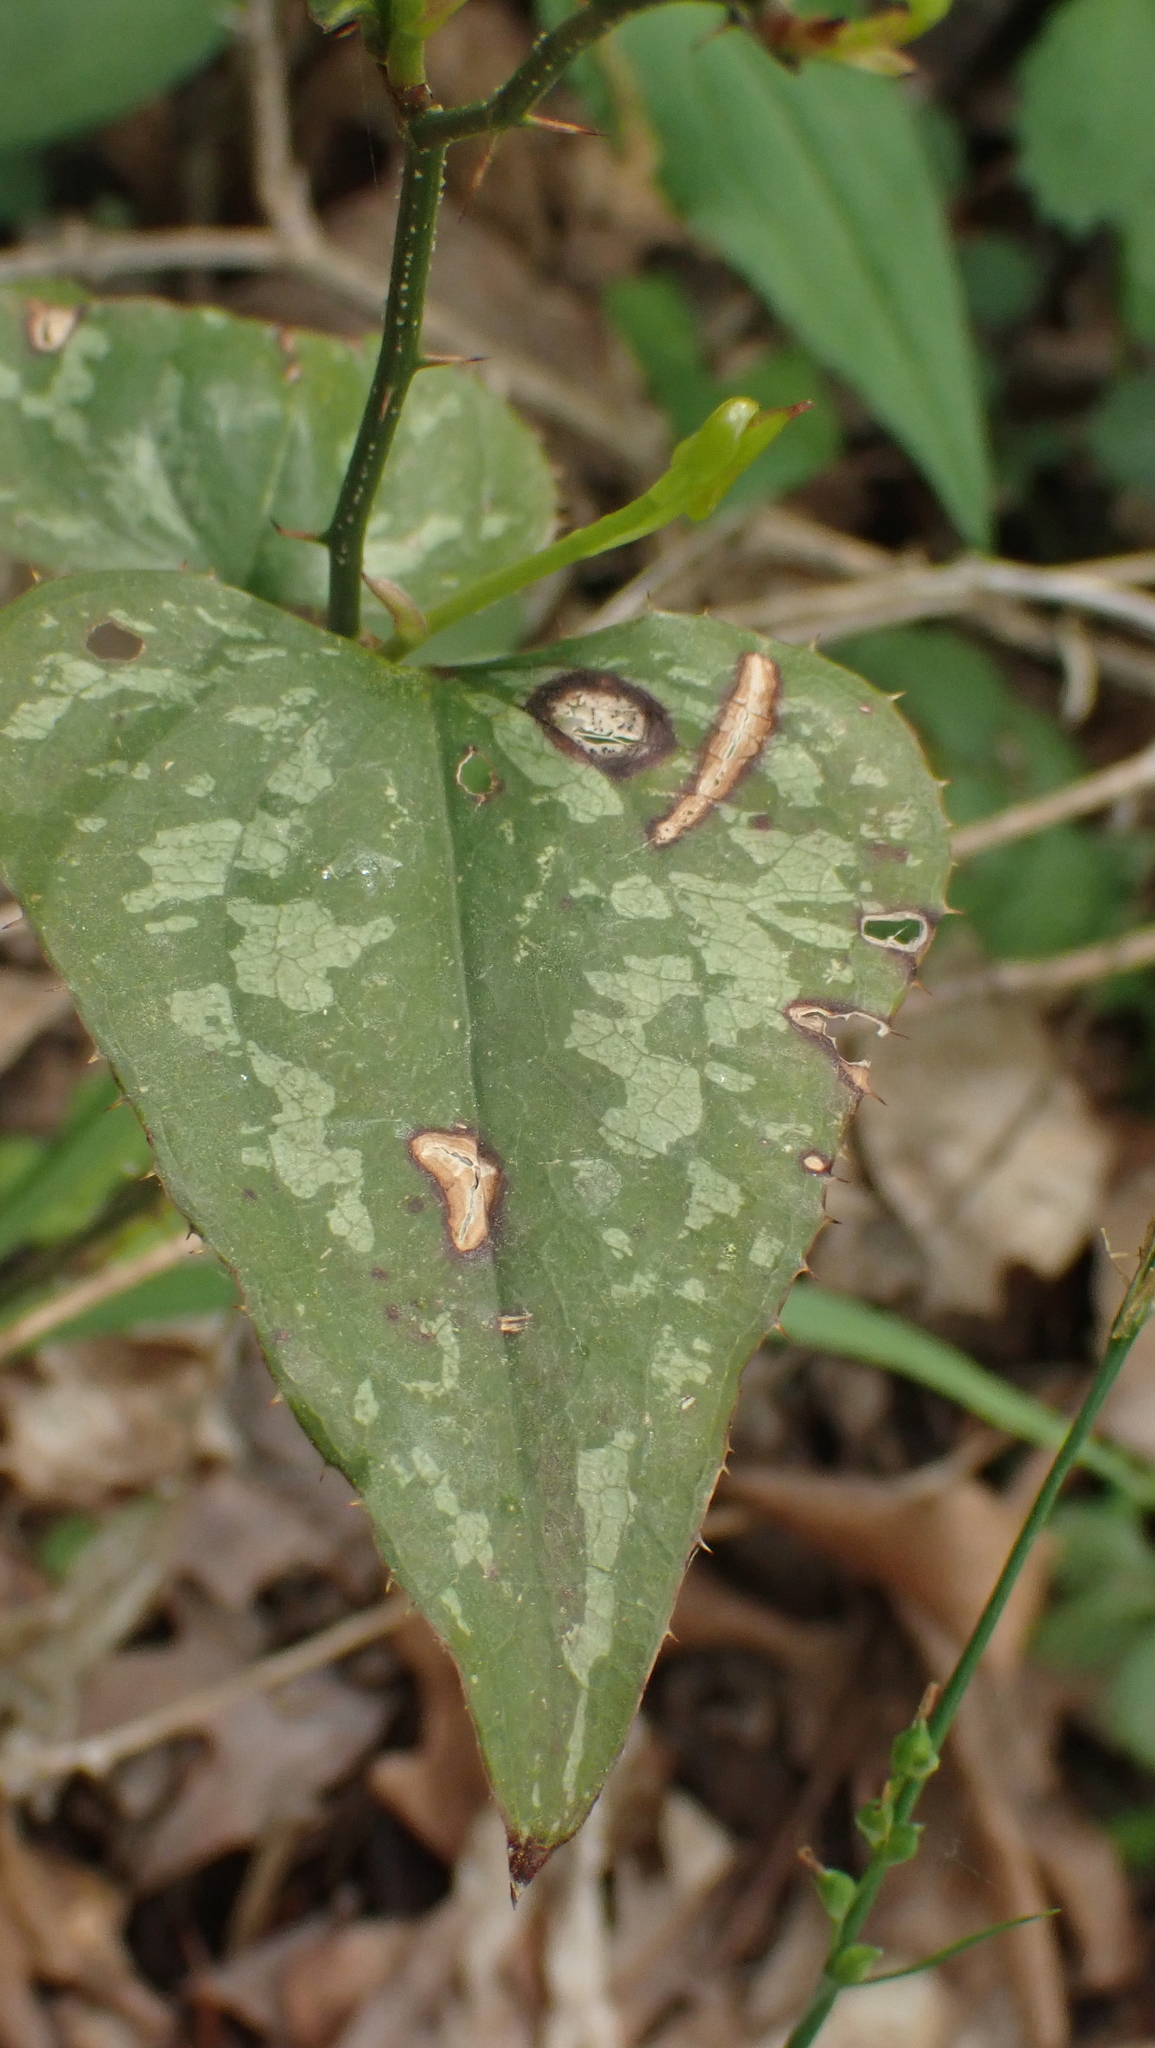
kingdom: Plantae
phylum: Tracheophyta
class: Liliopsida
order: Liliales
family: Smilacaceae
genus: Smilax
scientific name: Smilax bona-nox
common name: Catbrier
